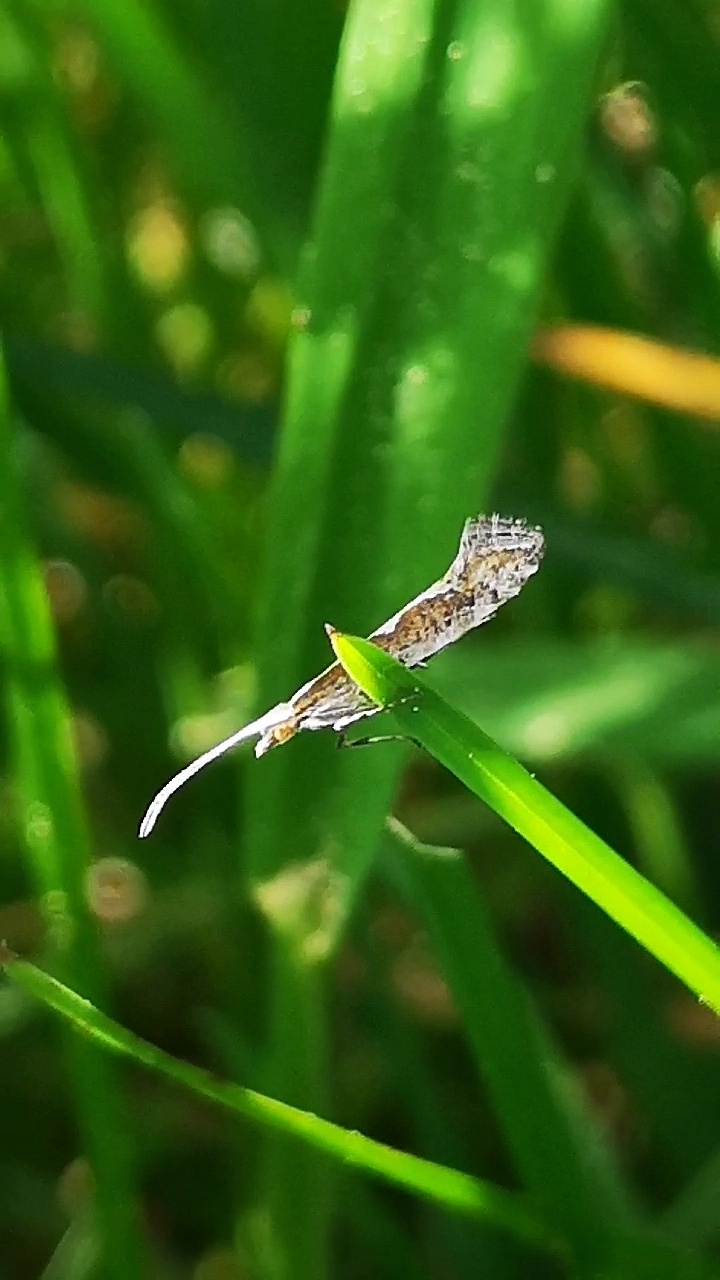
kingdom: Animalia
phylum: Arthropoda
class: Insecta
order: Lepidoptera
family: Plutellidae
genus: Plutella
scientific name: Plutella xylostella
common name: Diamond-back moth
